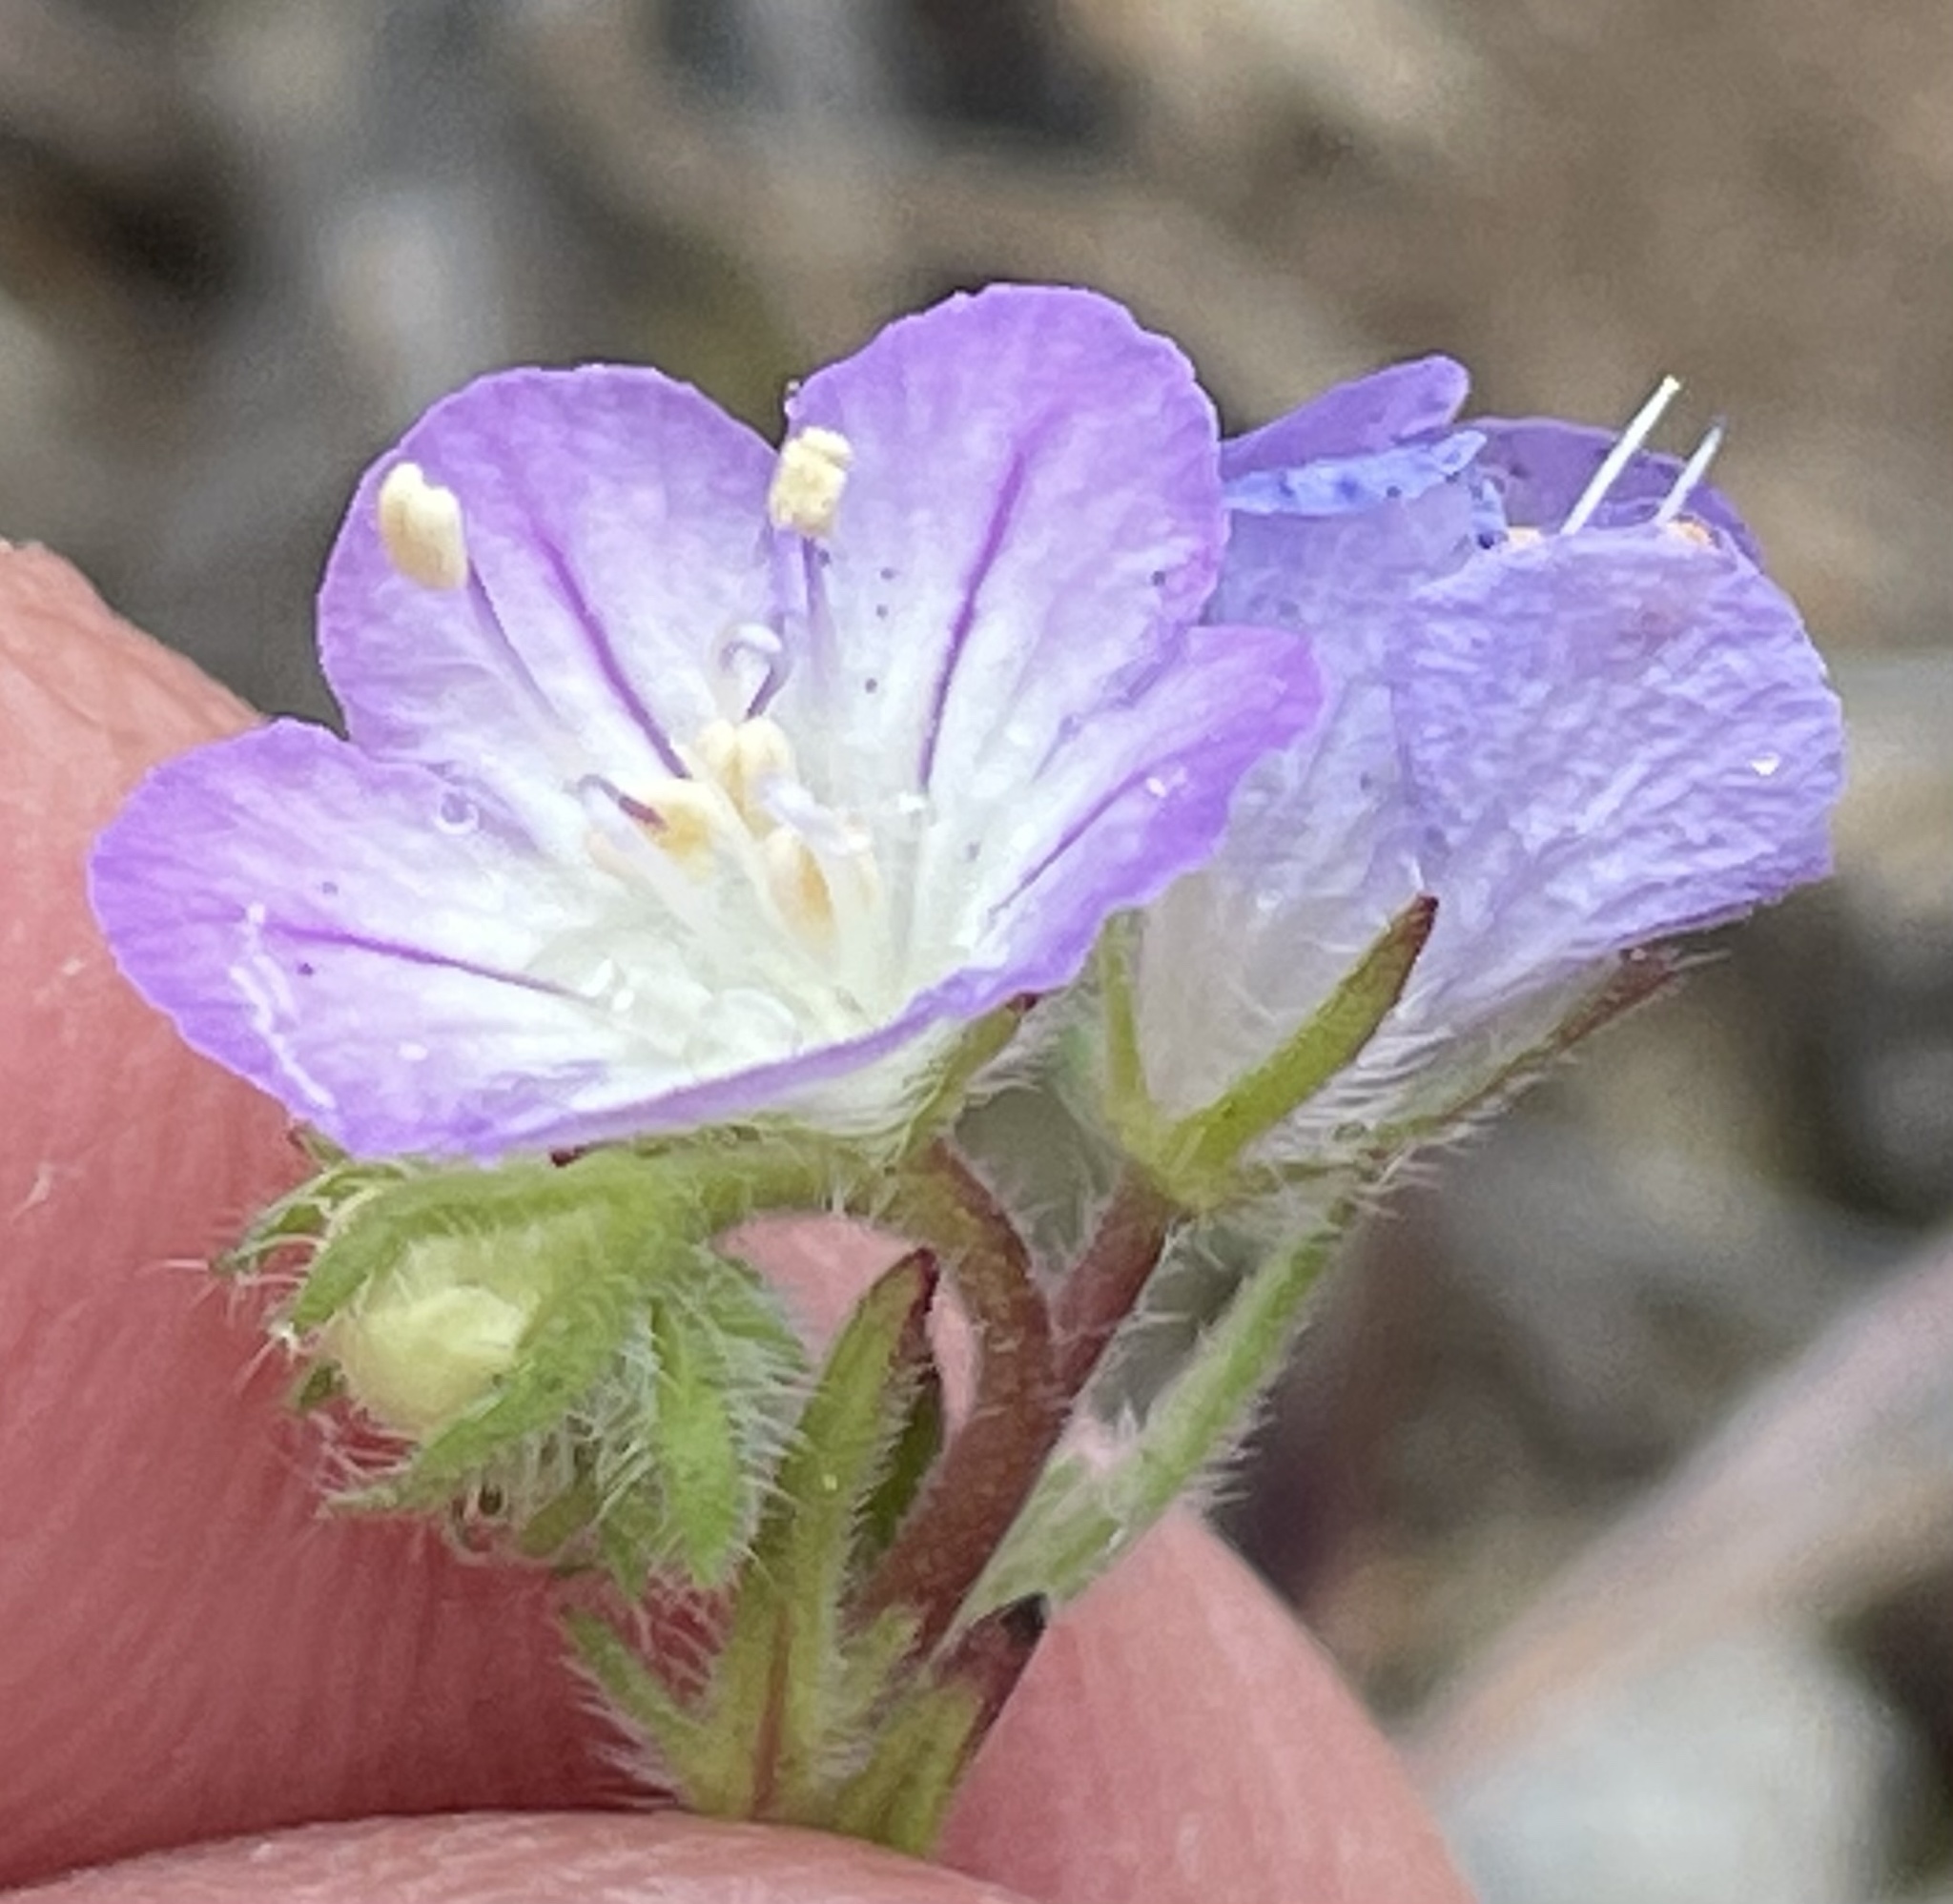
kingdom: Plantae
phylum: Tracheophyta
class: Magnoliopsida
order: Boraginales
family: Hydrophyllaceae
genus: Phacelia
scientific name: Phacelia linearis
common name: Linear-leaved phacelia
